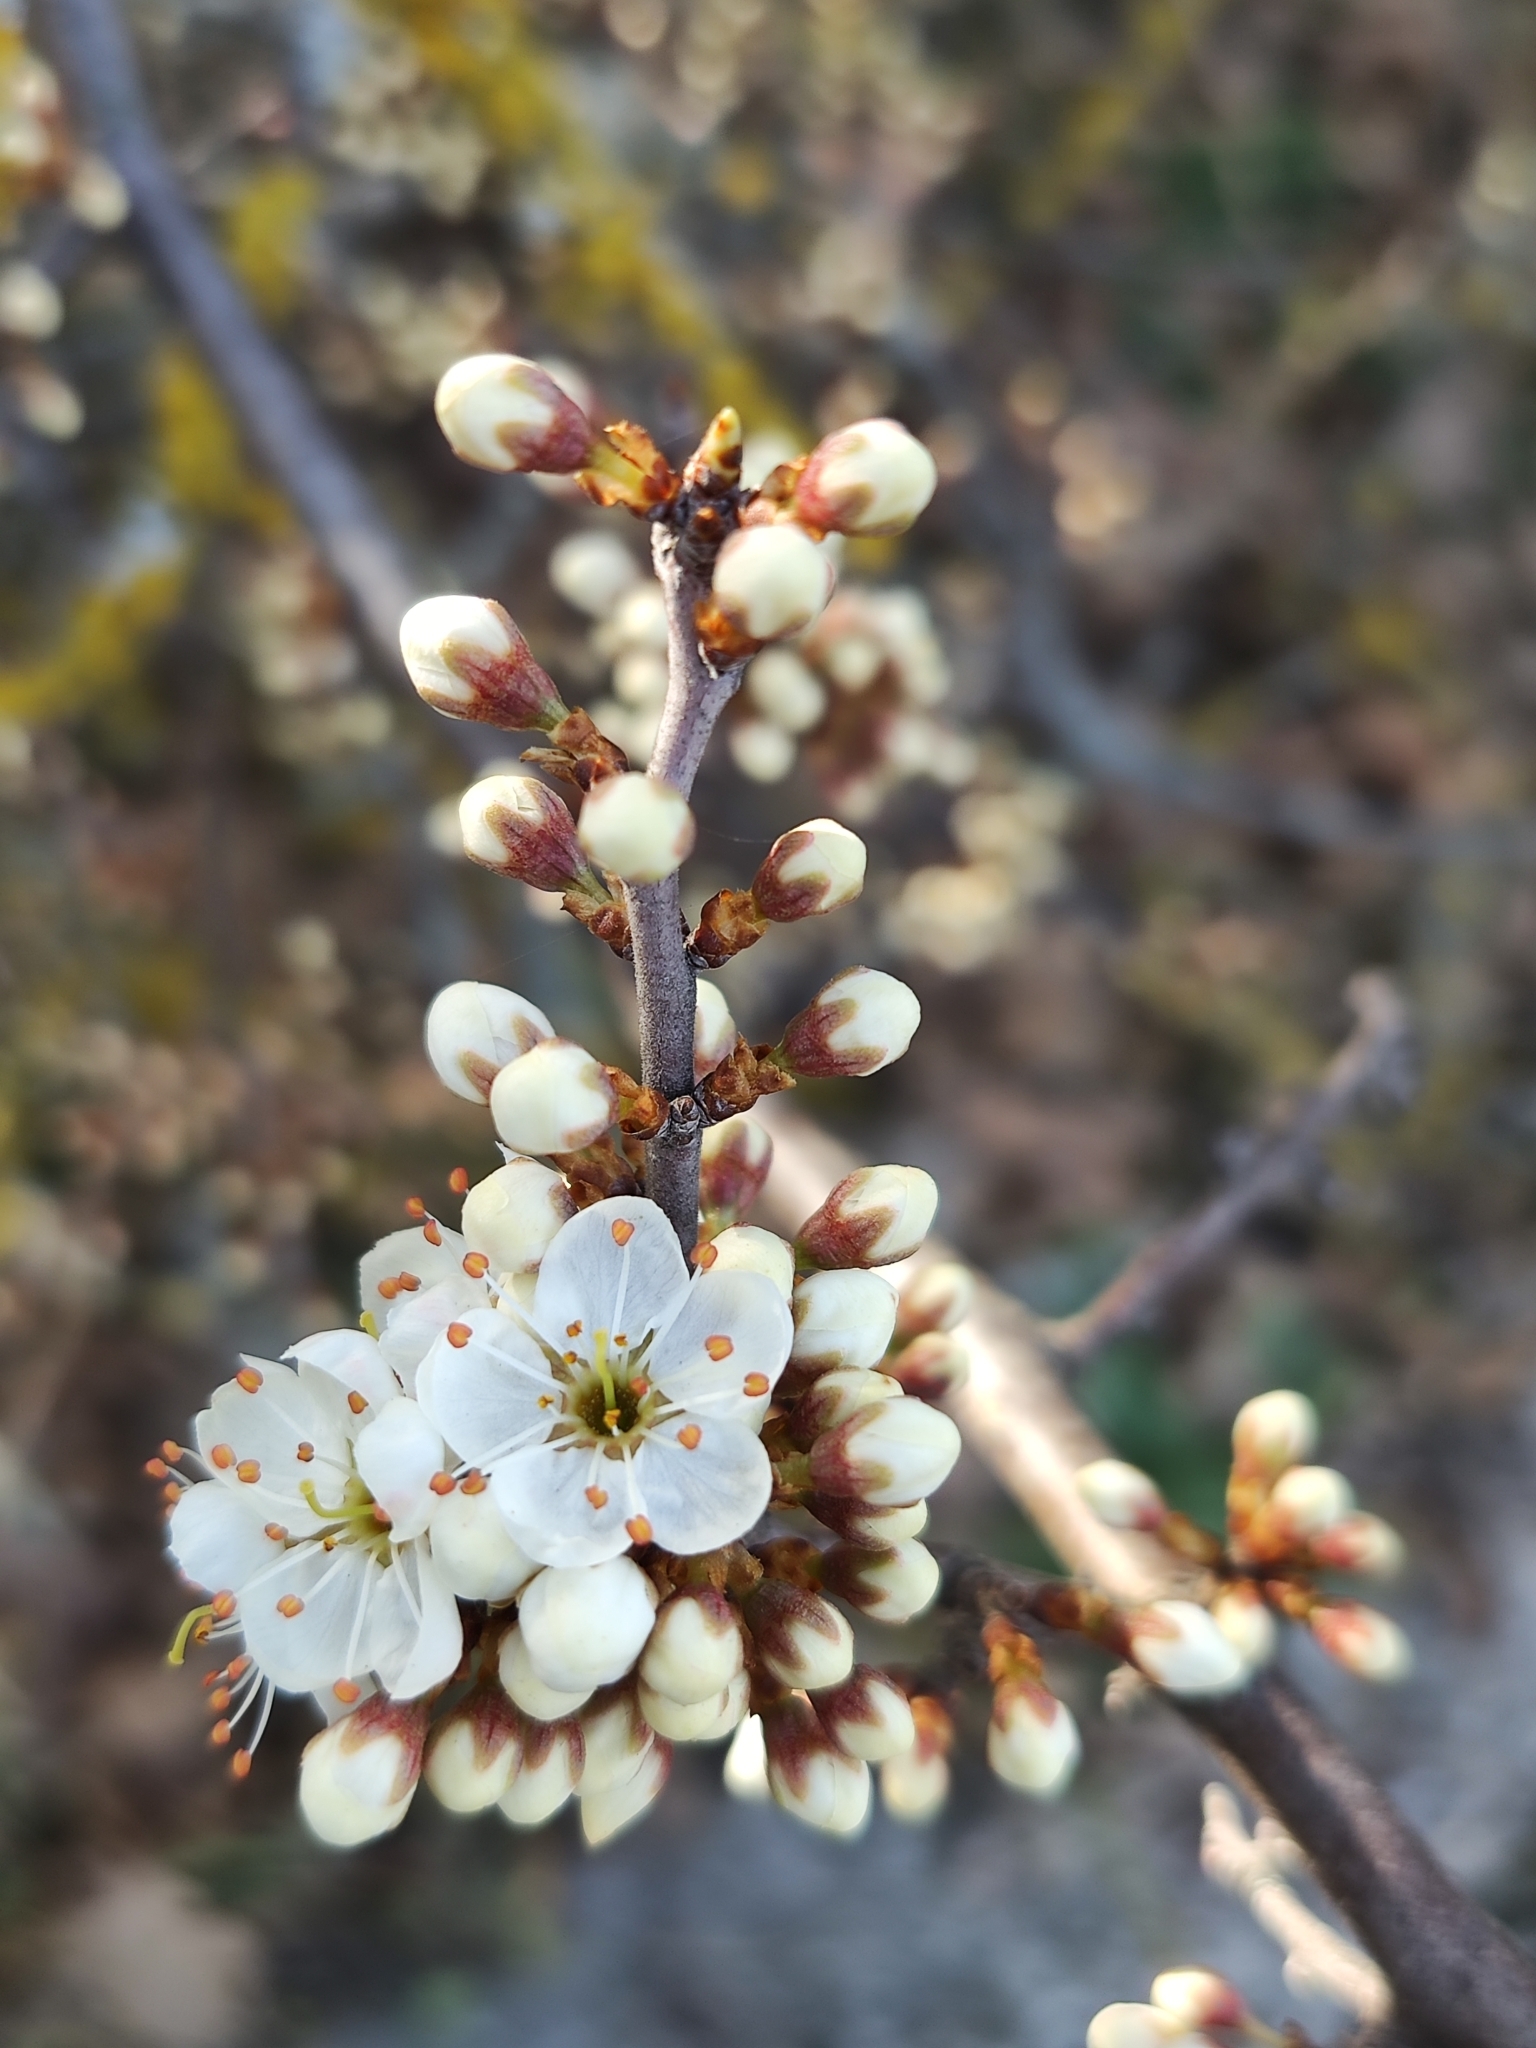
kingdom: Plantae
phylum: Tracheophyta
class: Magnoliopsida
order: Rosales
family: Rosaceae
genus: Prunus
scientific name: Prunus spinosa
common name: Blackthorn
